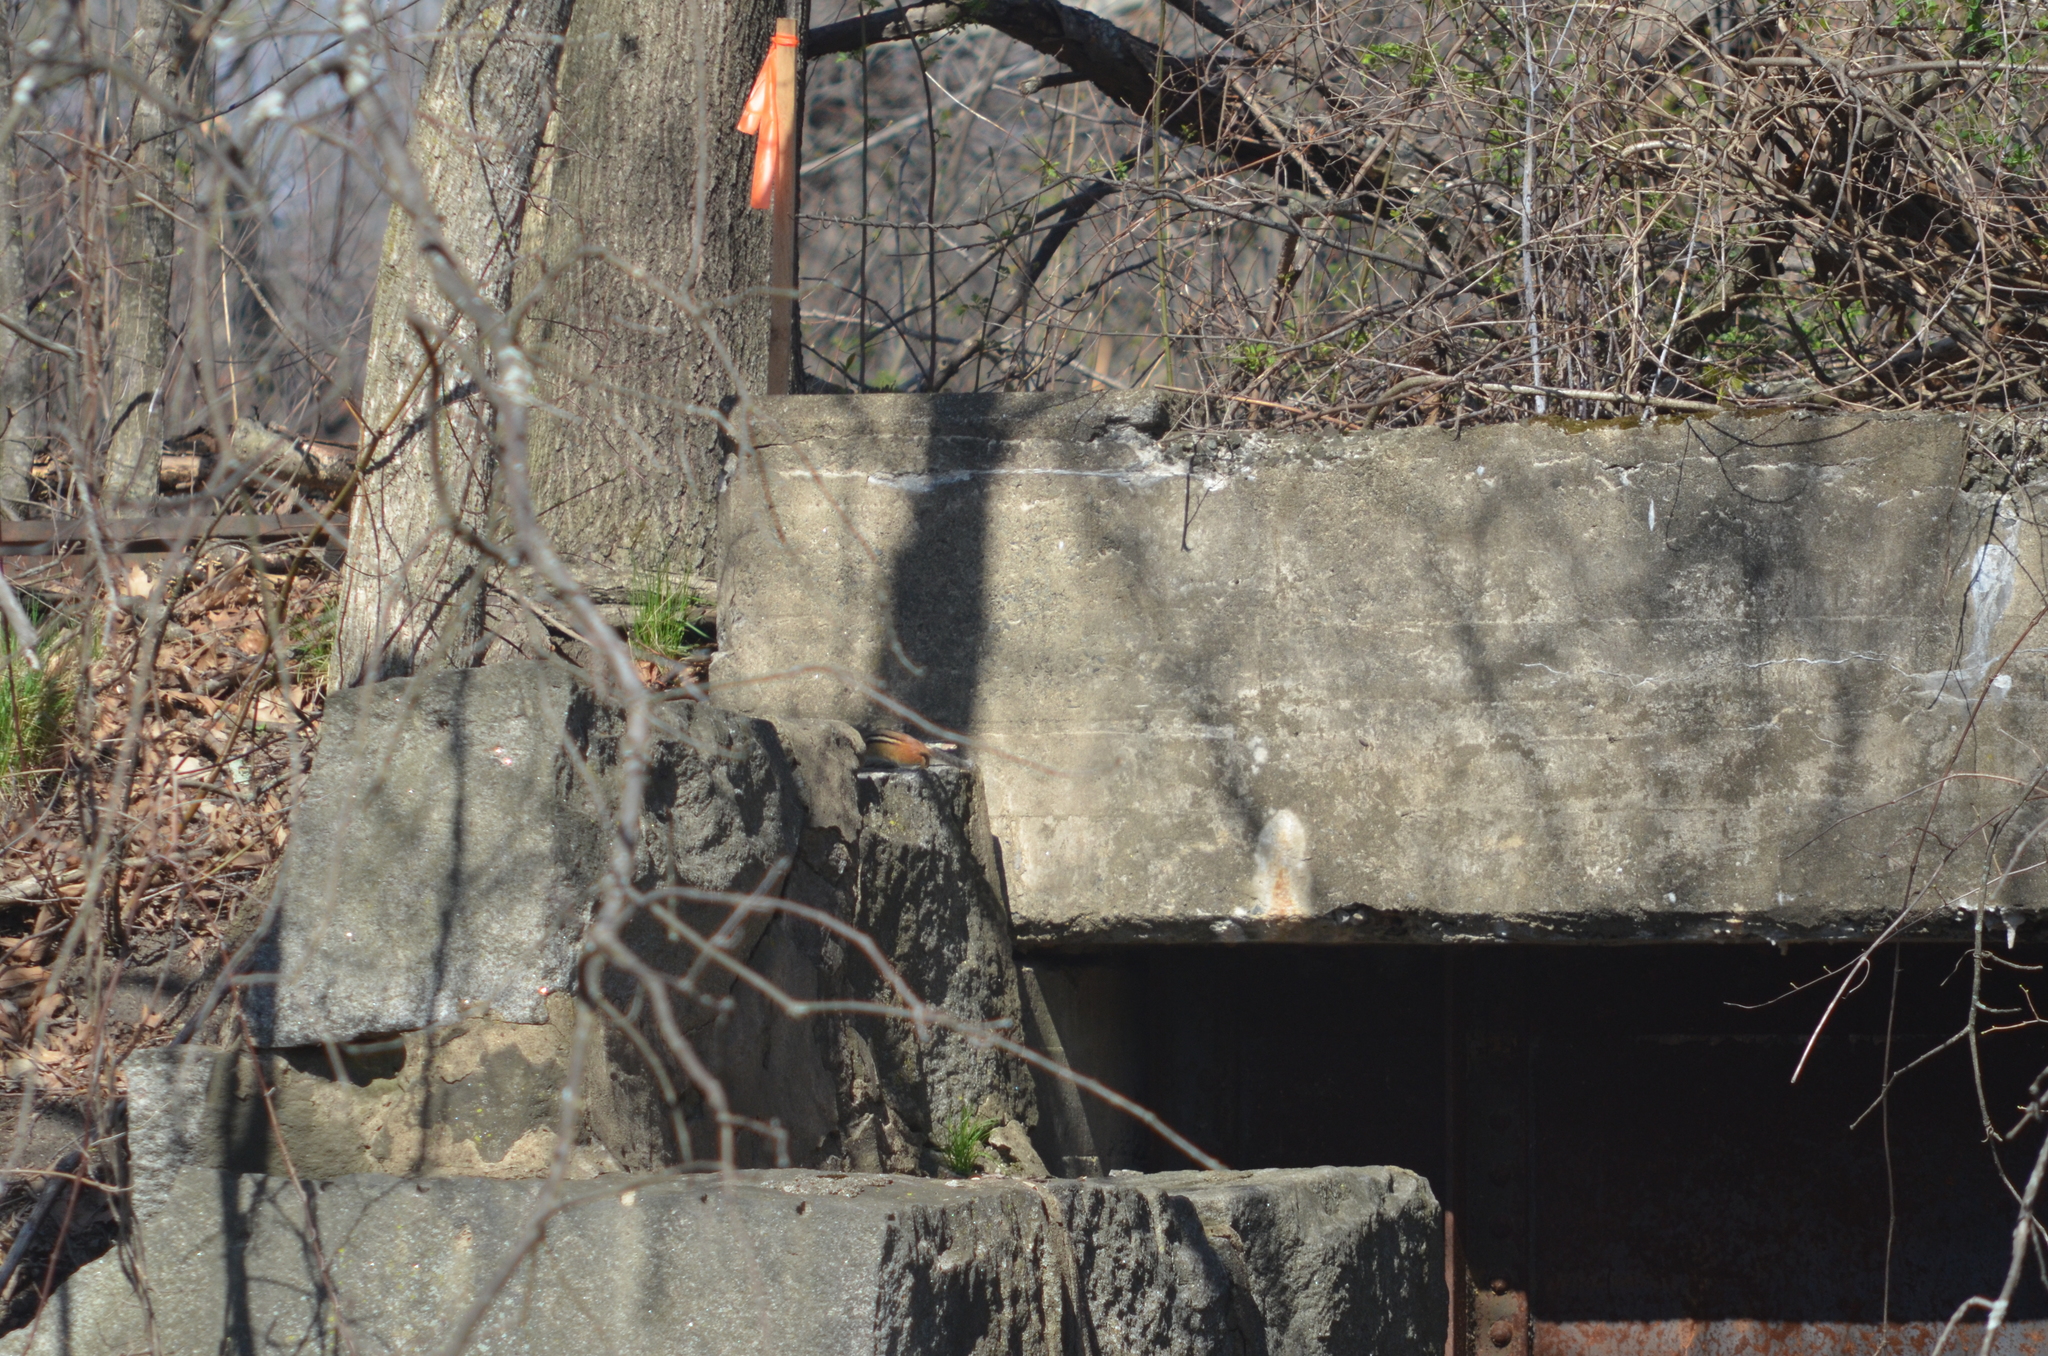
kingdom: Animalia
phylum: Chordata
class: Mammalia
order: Rodentia
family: Sciuridae
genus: Tamias
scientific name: Tamias striatus
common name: Eastern chipmunk
